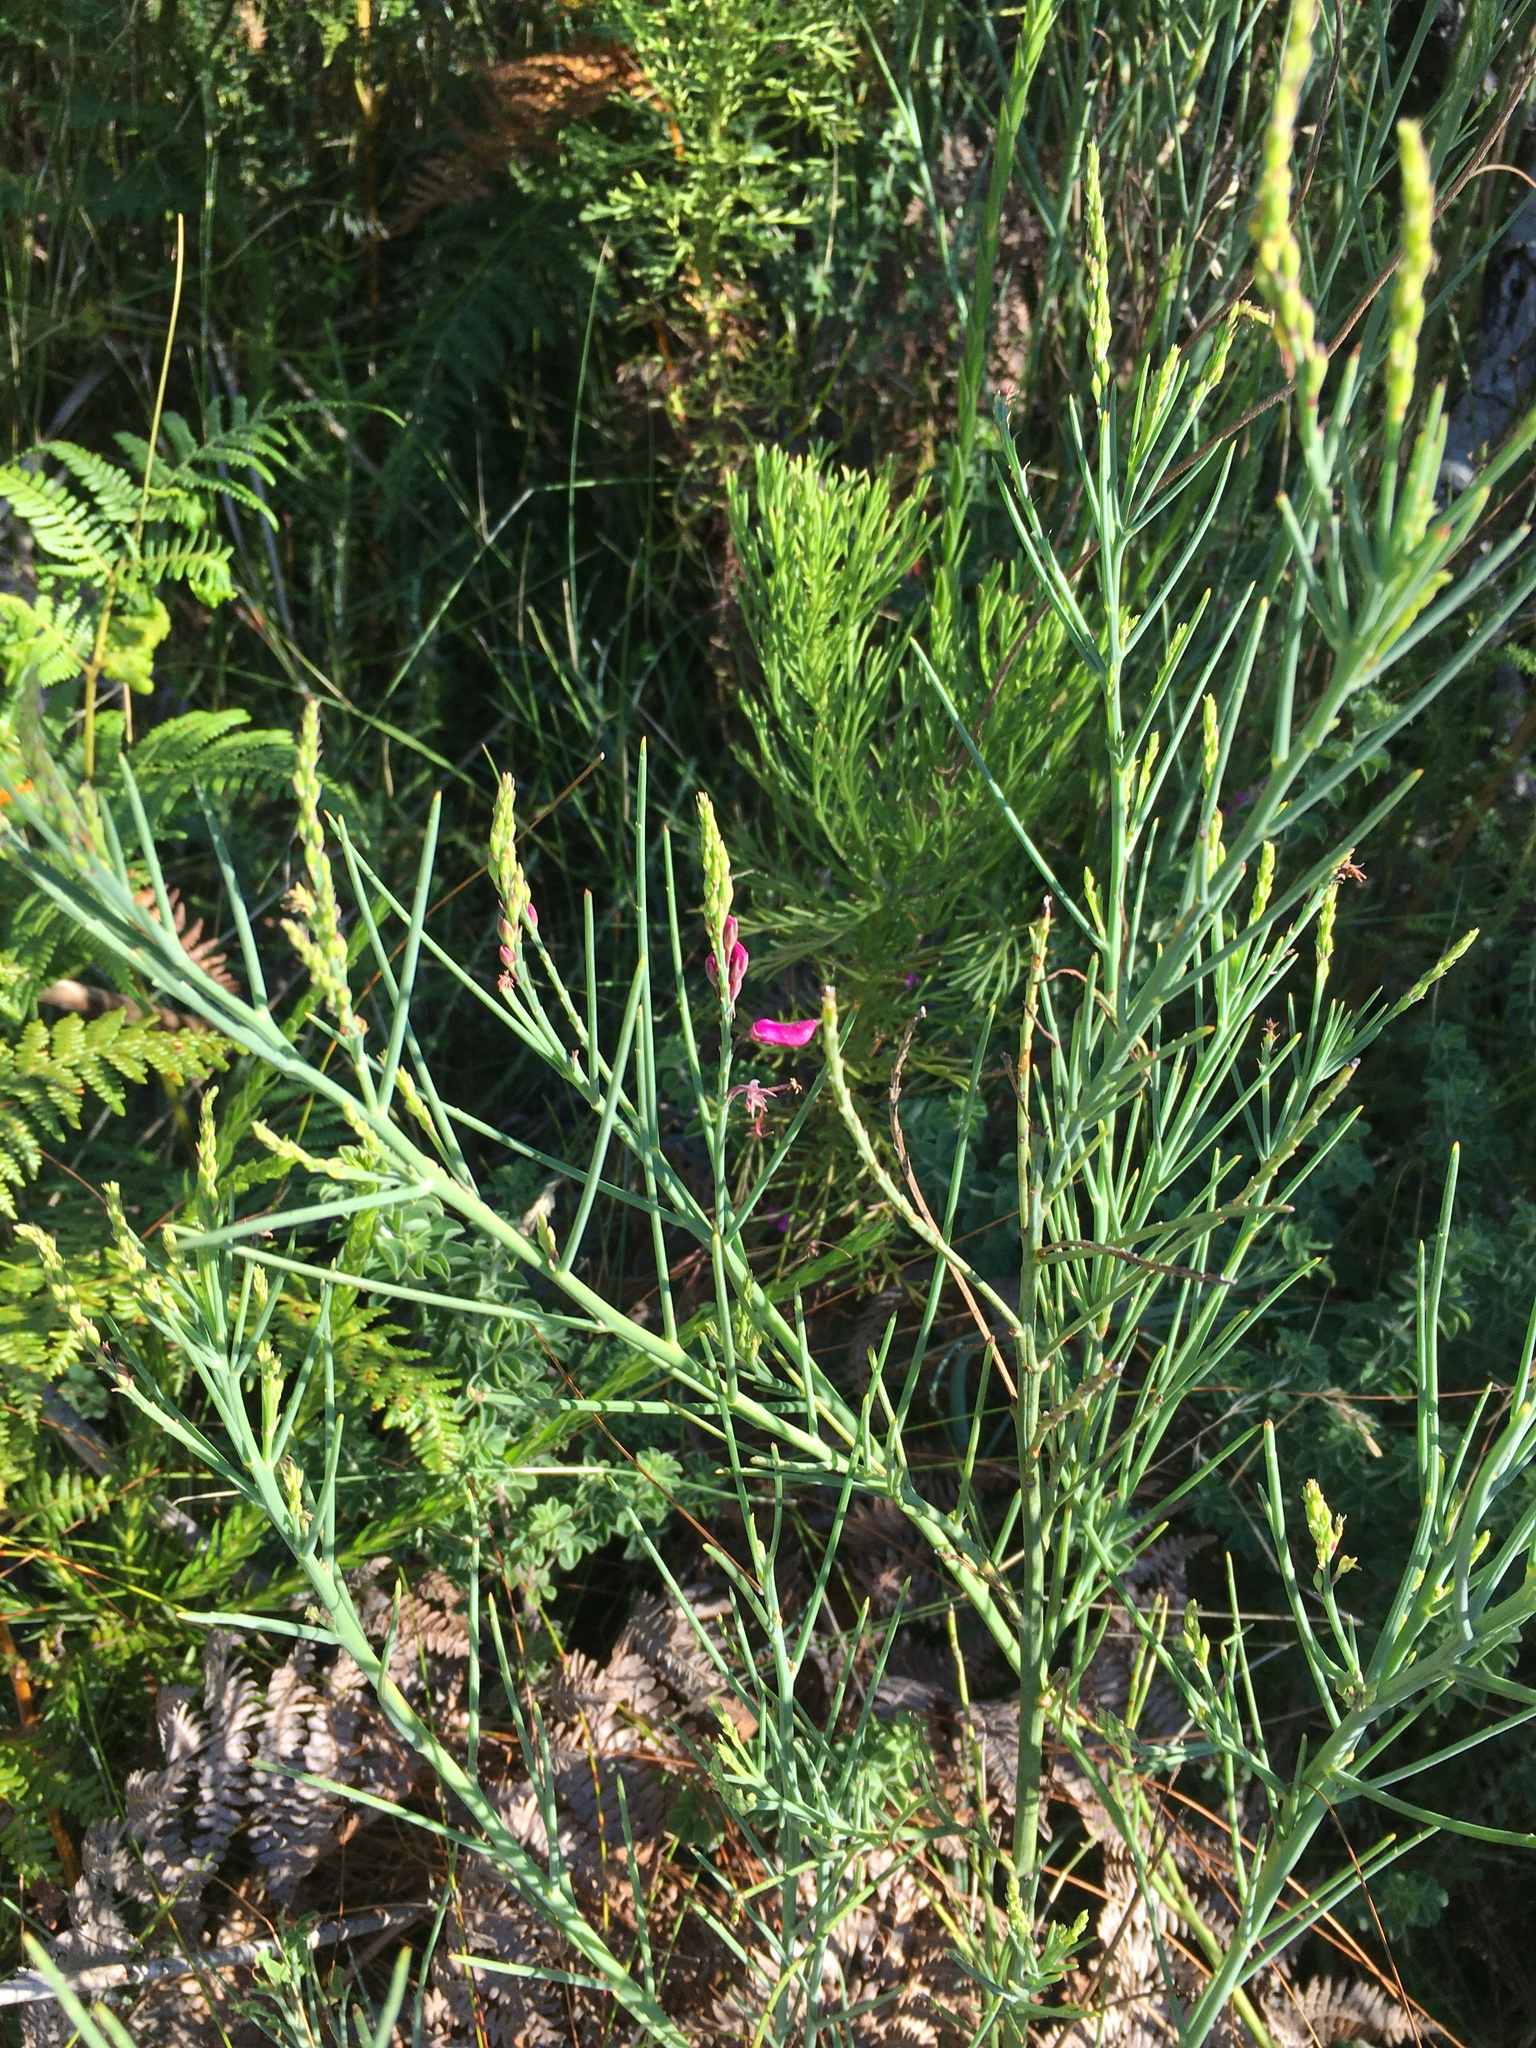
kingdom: Plantae
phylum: Tracheophyta
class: Magnoliopsida
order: Fabales
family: Fabaceae
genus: Indigofera
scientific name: Indigofera filifolia
